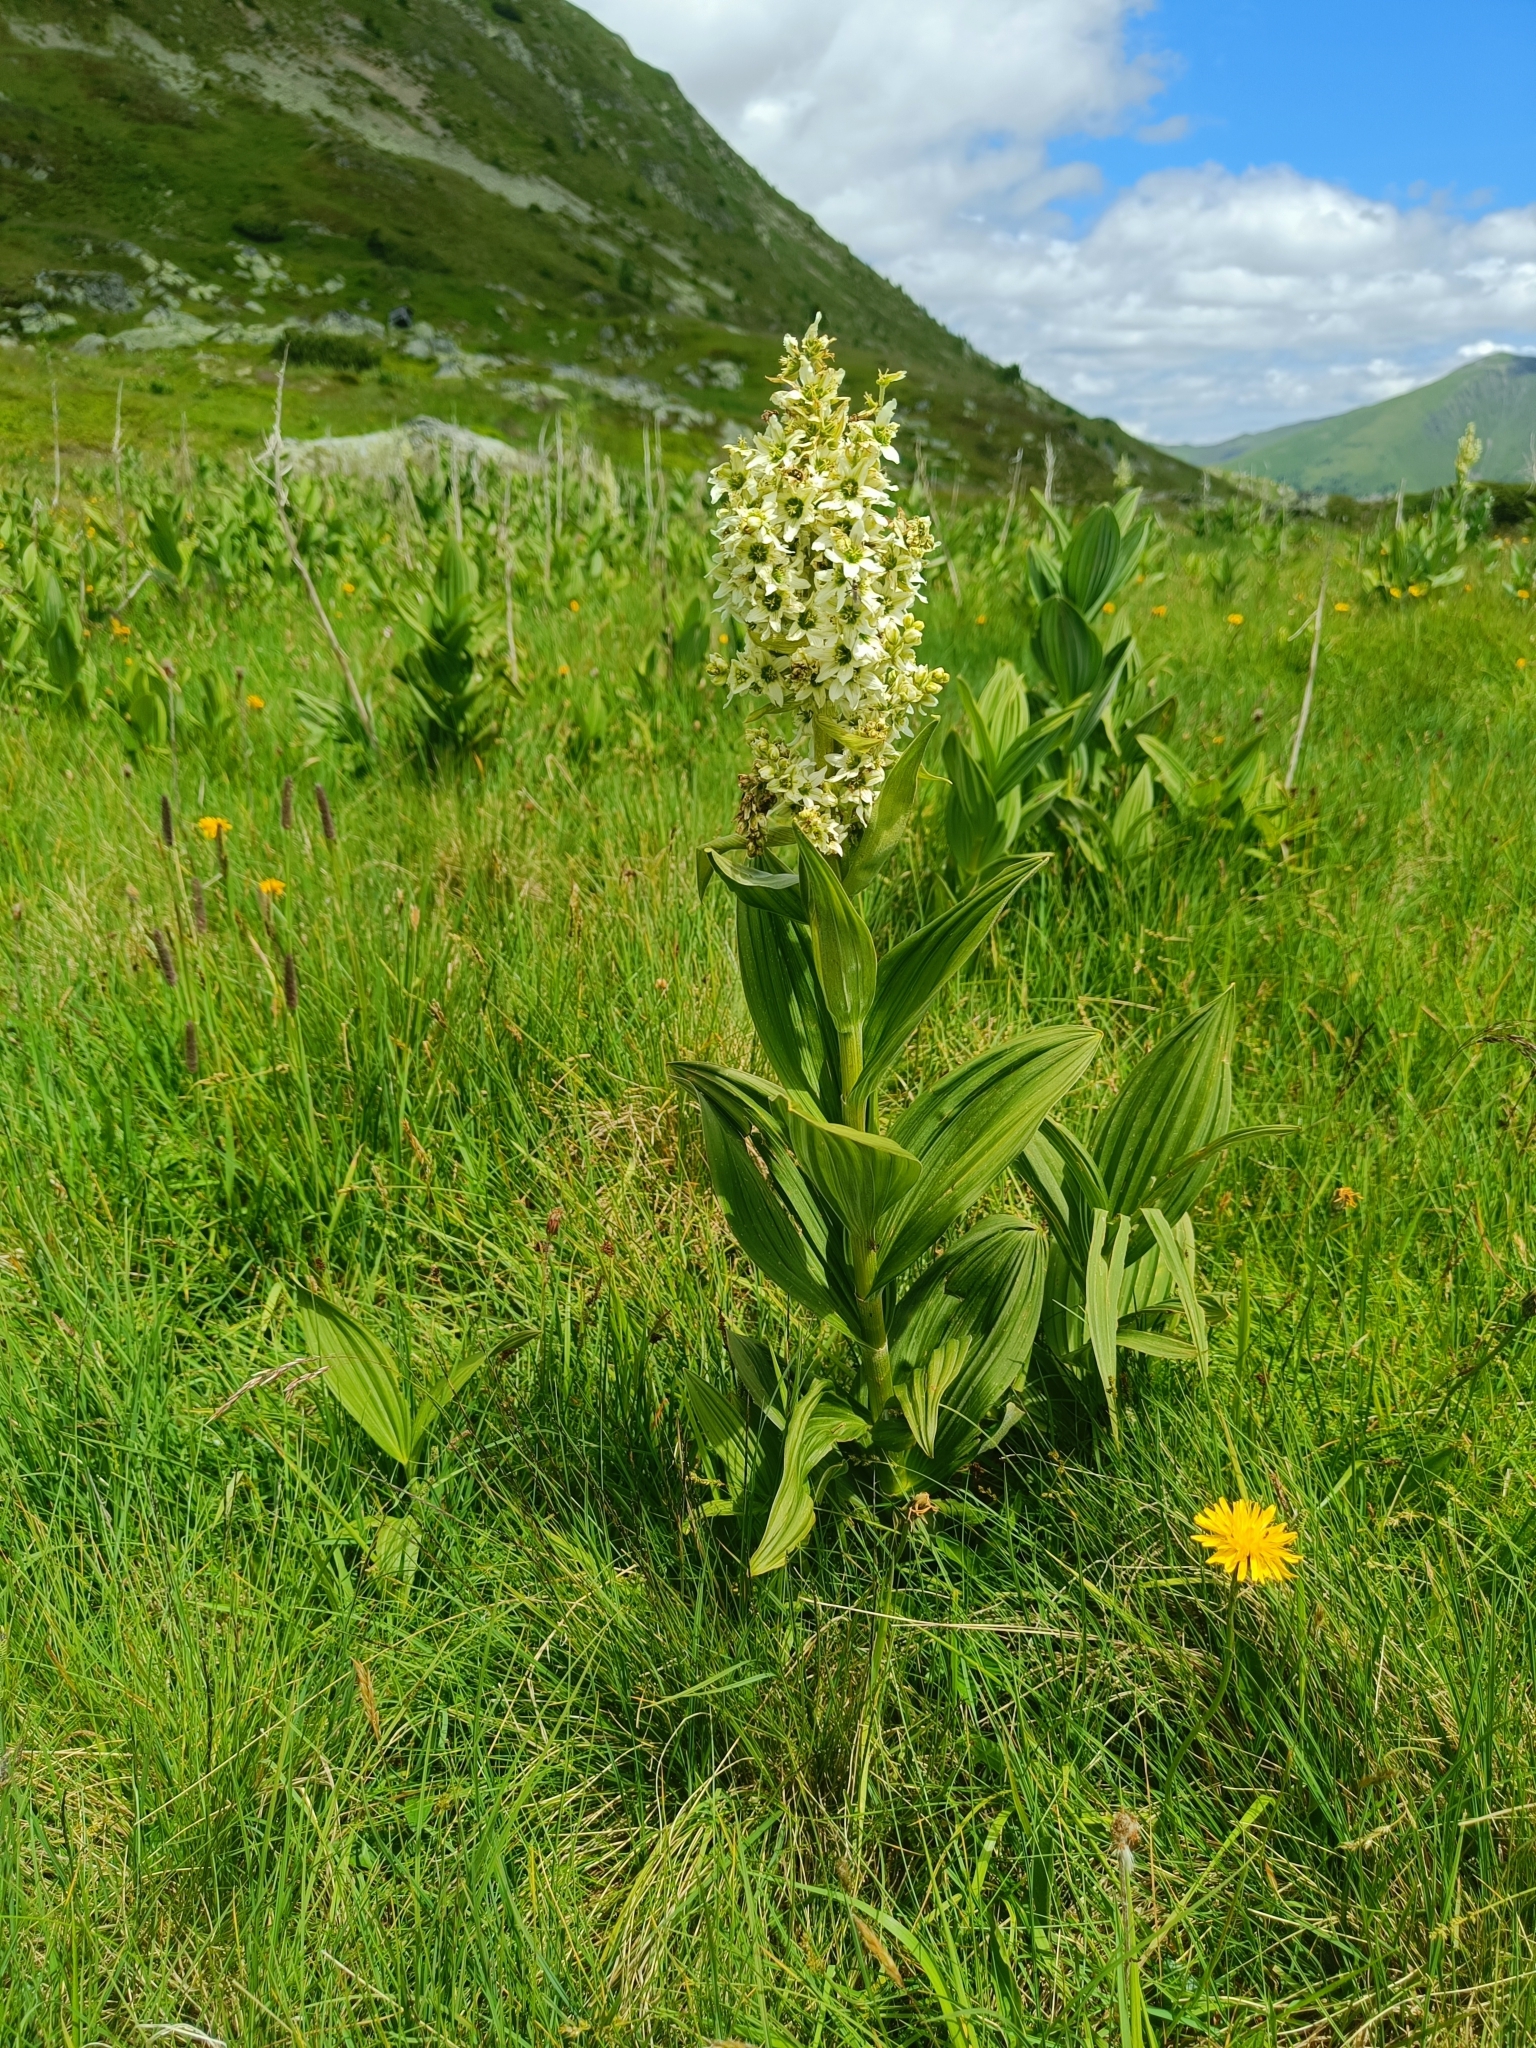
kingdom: Plantae
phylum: Tracheophyta
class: Liliopsida
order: Liliales
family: Melanthiaceae
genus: Veratrum
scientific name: Veratrum album
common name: White veratrum
